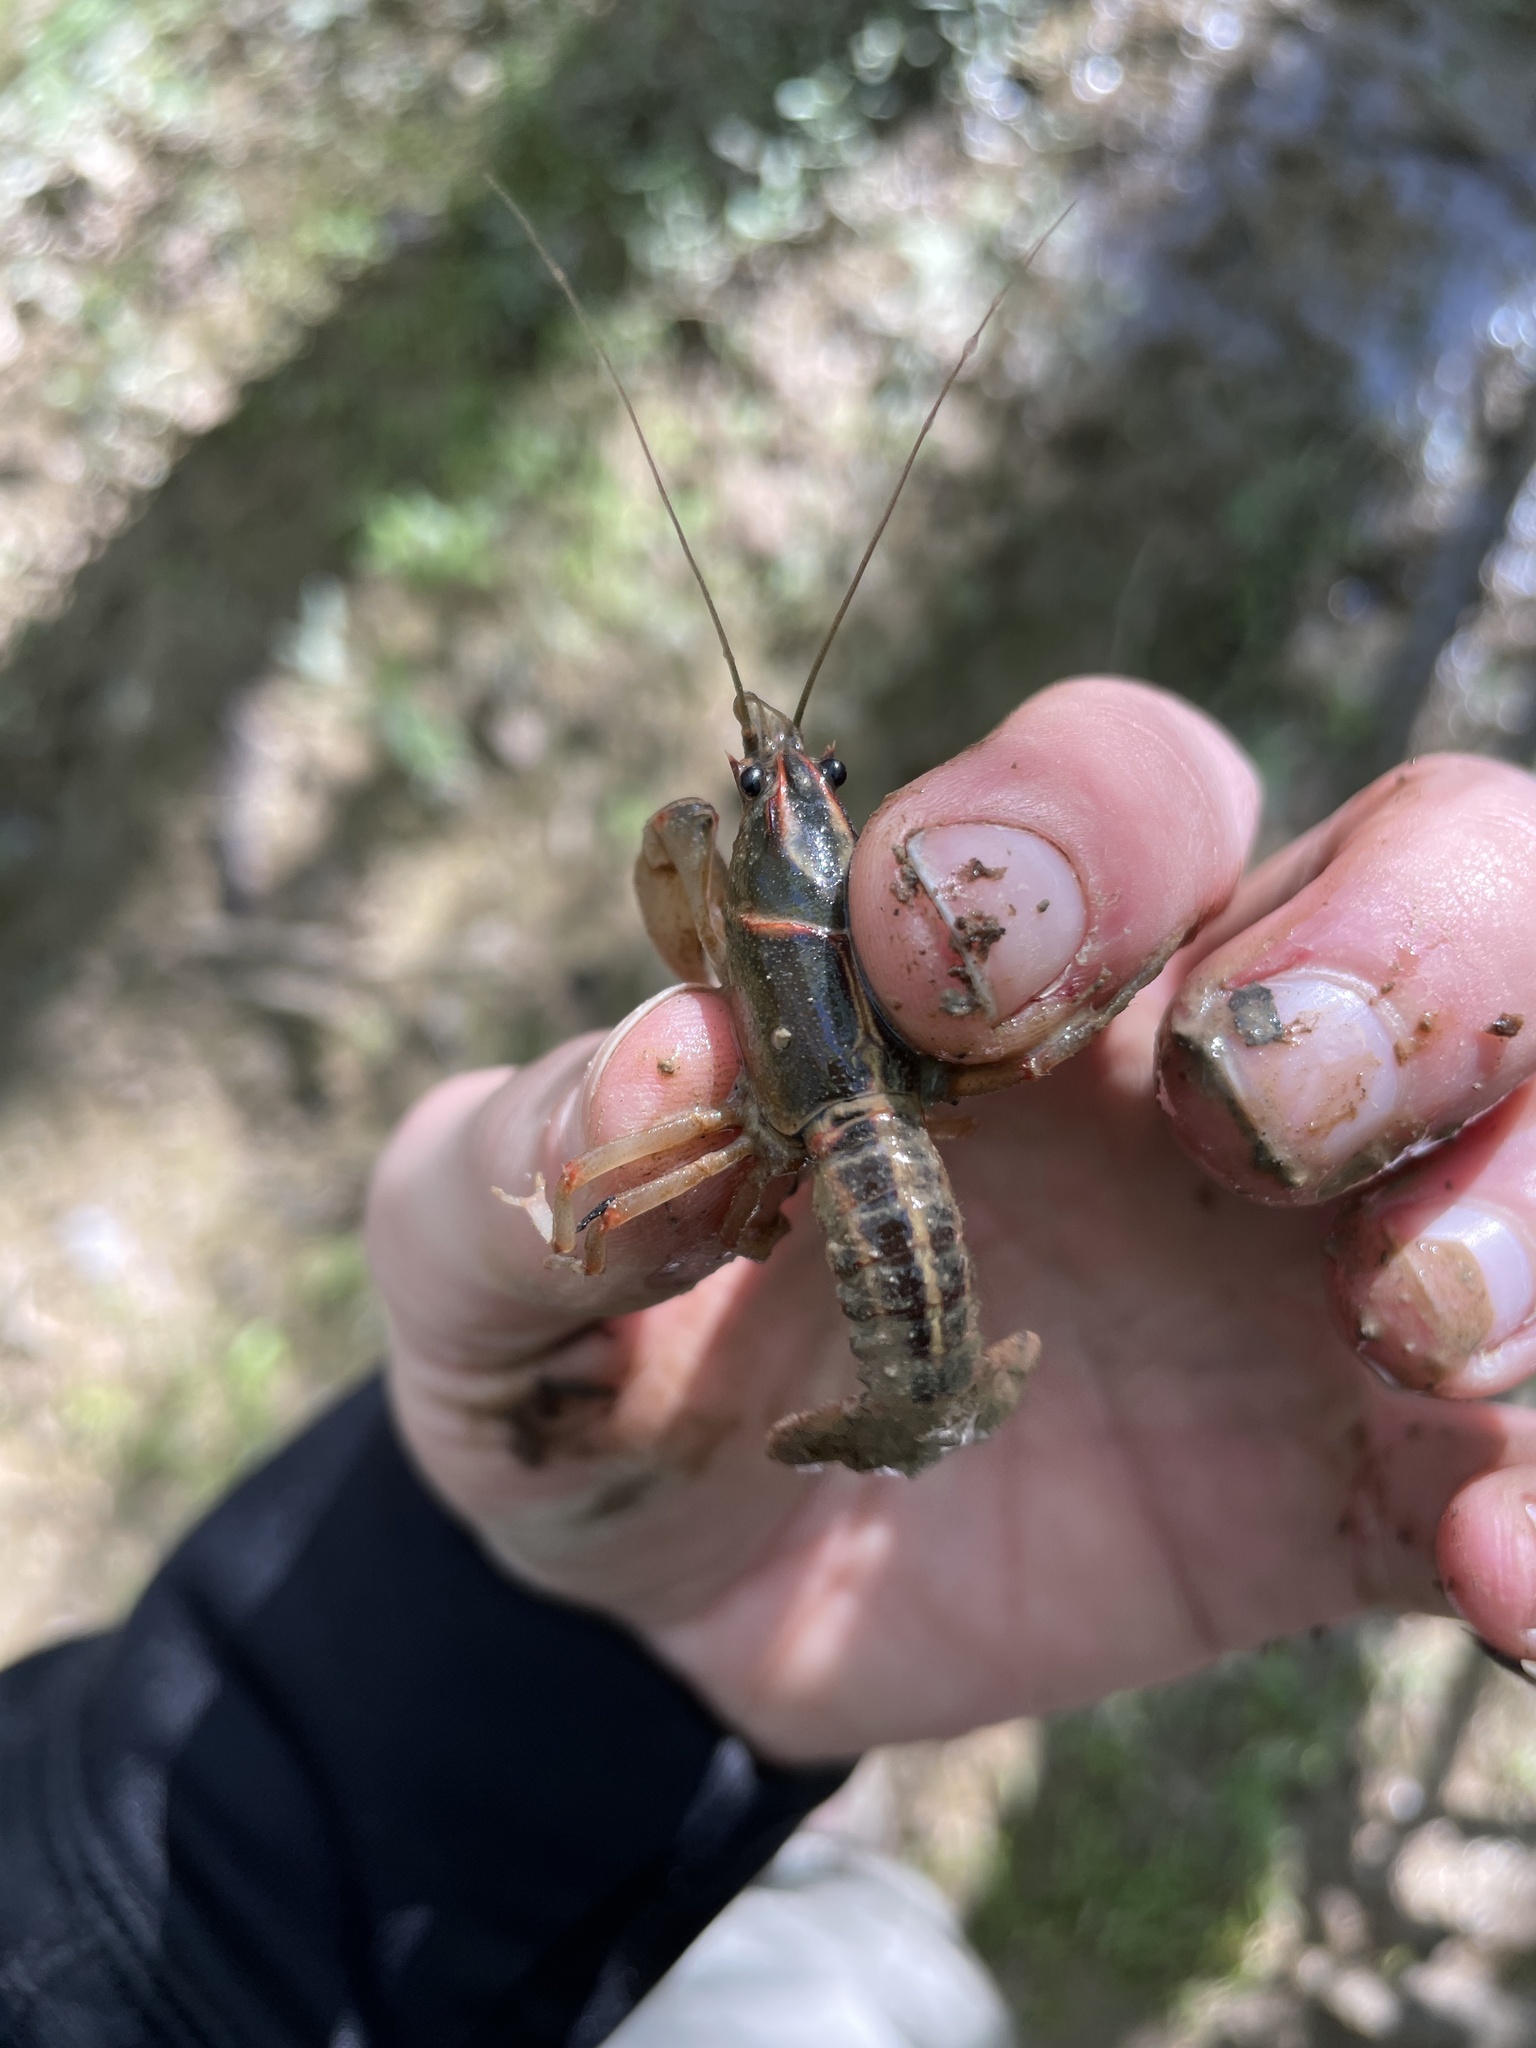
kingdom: Animalia
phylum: Arthropoda
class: Malacostraca
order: Decapoda
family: Cambaridae
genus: Lacunicambarus
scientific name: Lacunicambarus ludovicianus
